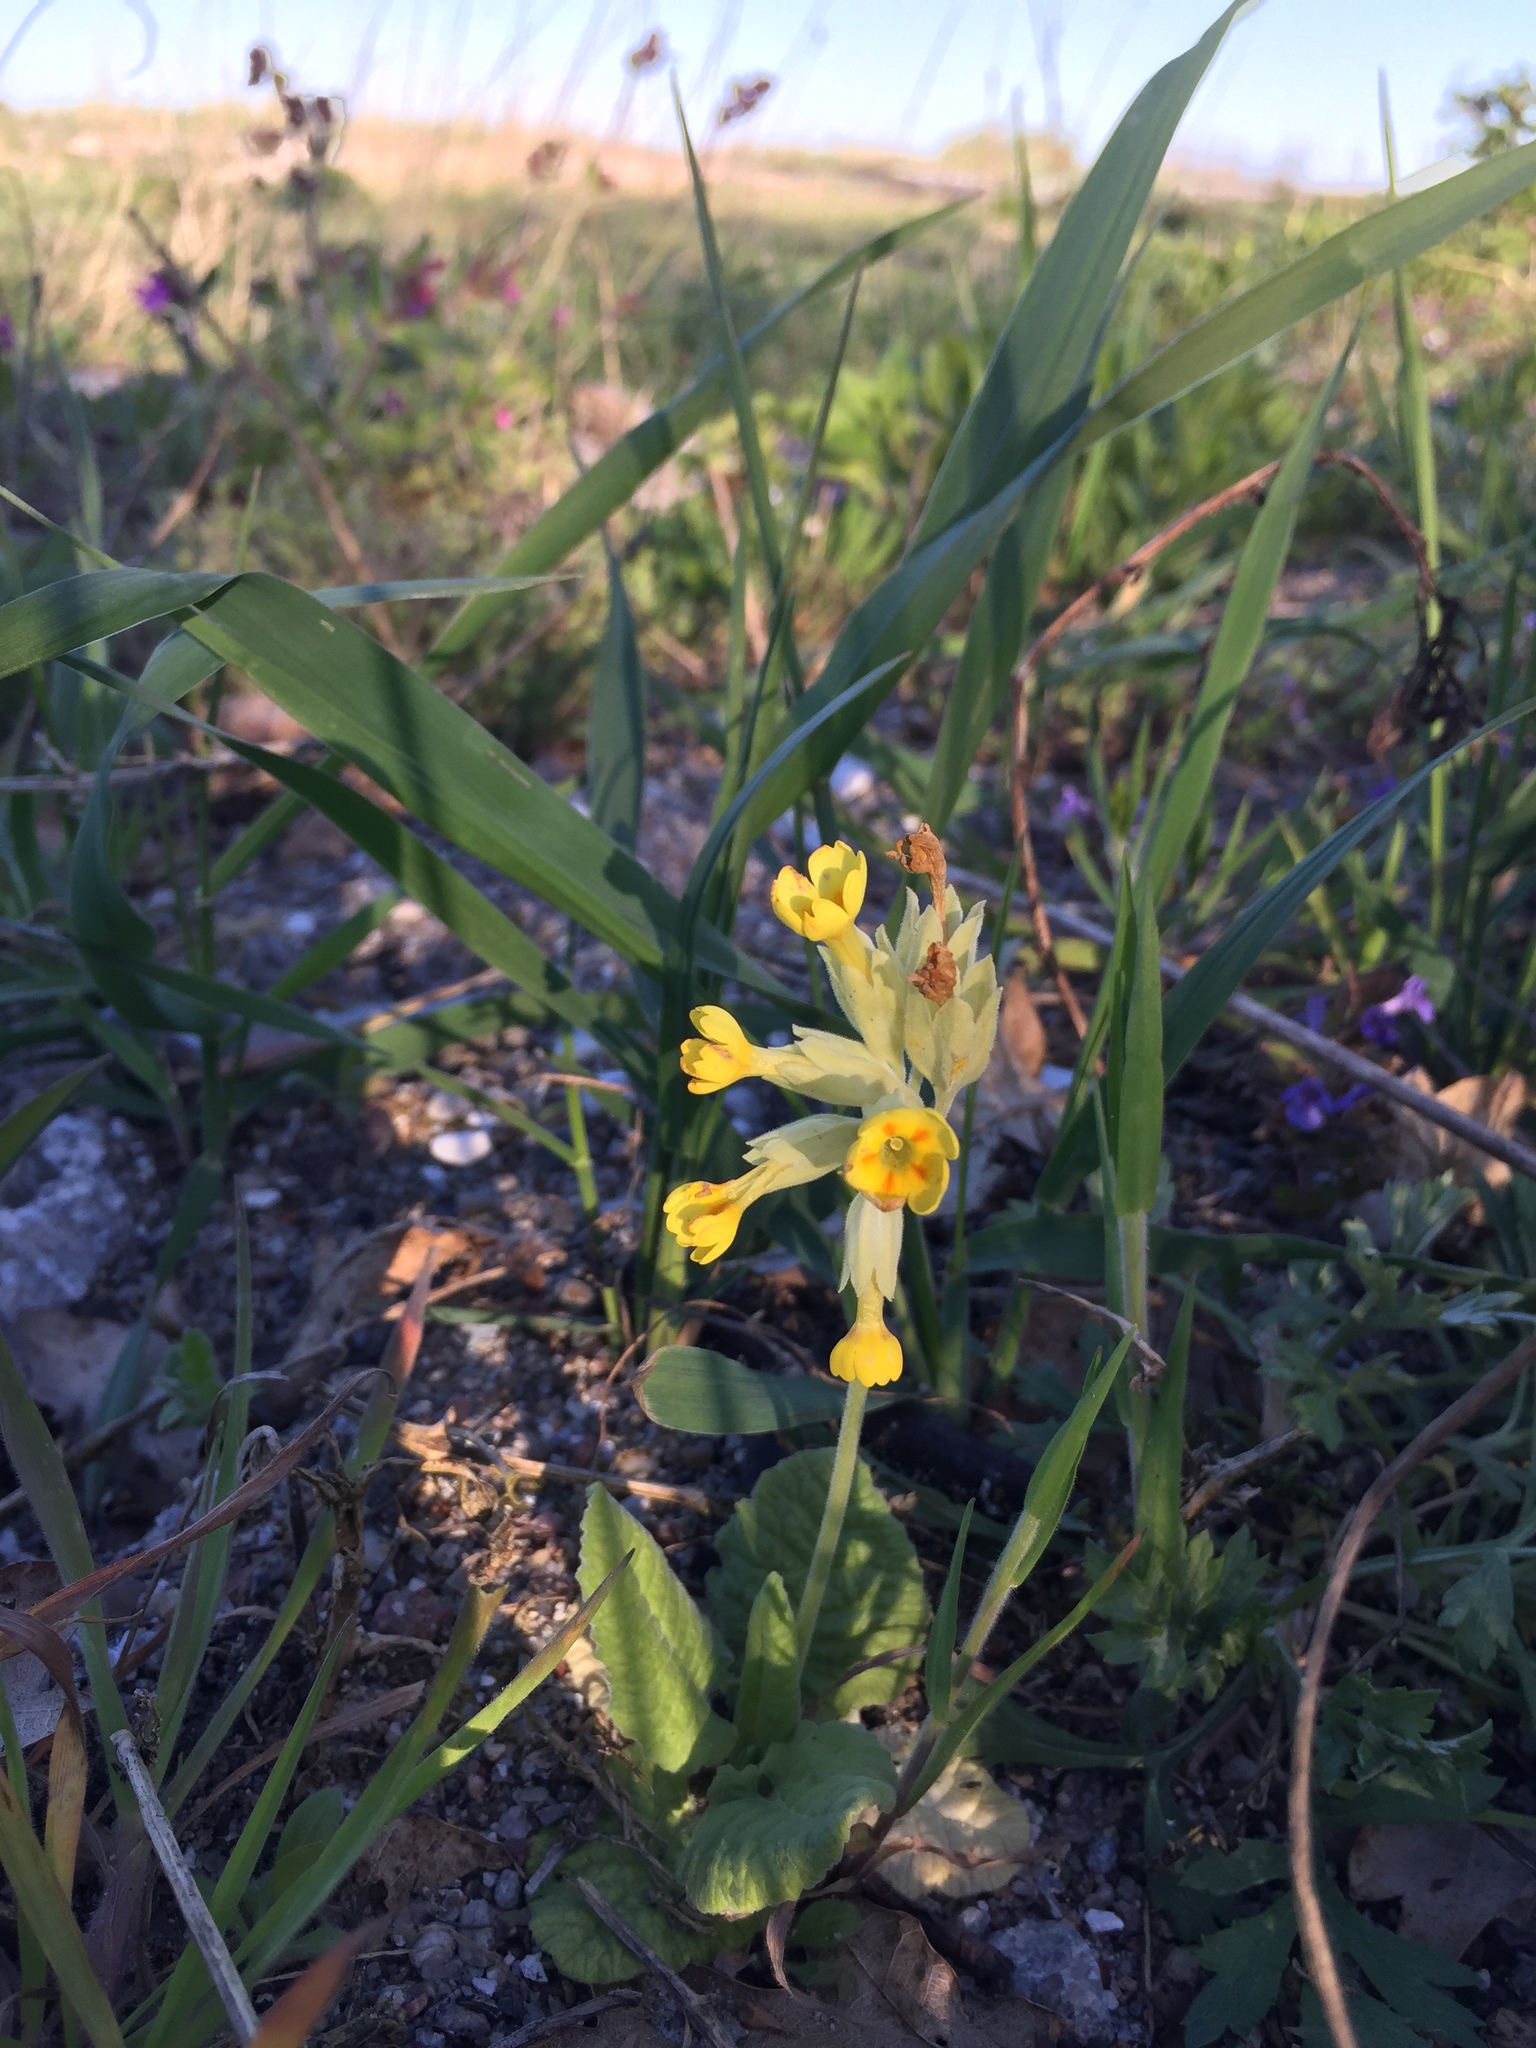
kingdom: Plantae
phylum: Tracheophyta
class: Magnoliopsida
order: Ericales
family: Primulaceae
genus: Primula
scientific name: Primula veris
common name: Cowslip
